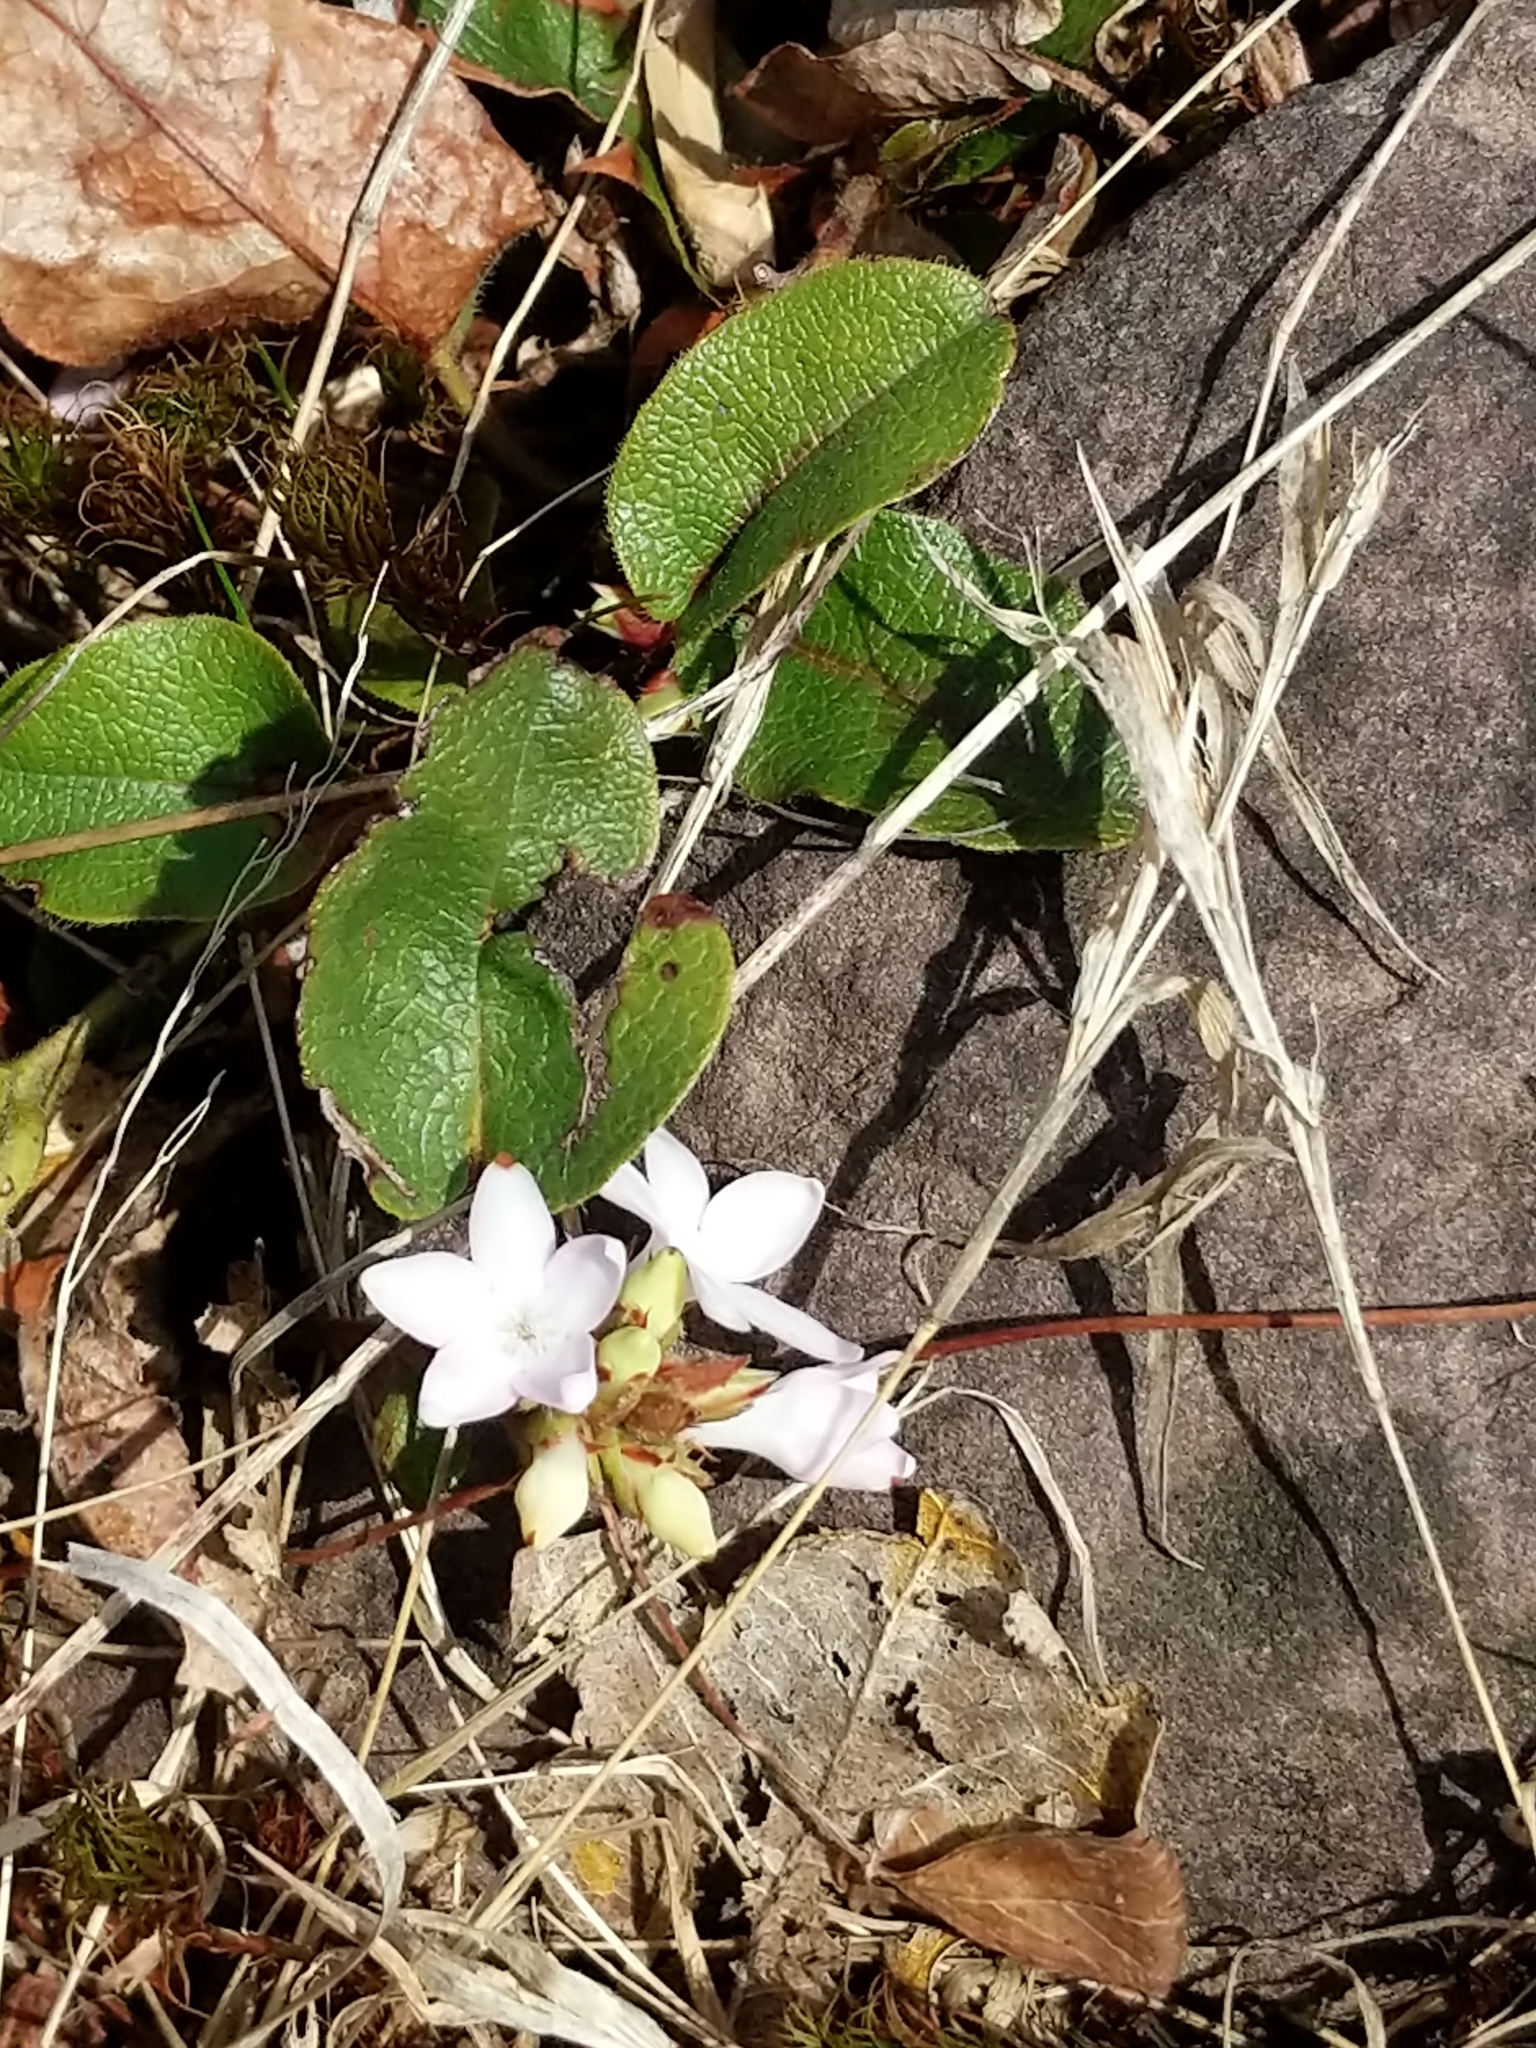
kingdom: Plantae
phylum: Tracheophyta
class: Magnoliopsida
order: Ericales
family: Ericaceae
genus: Epigaea
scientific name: Epigaea repens
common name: Gravelroot
